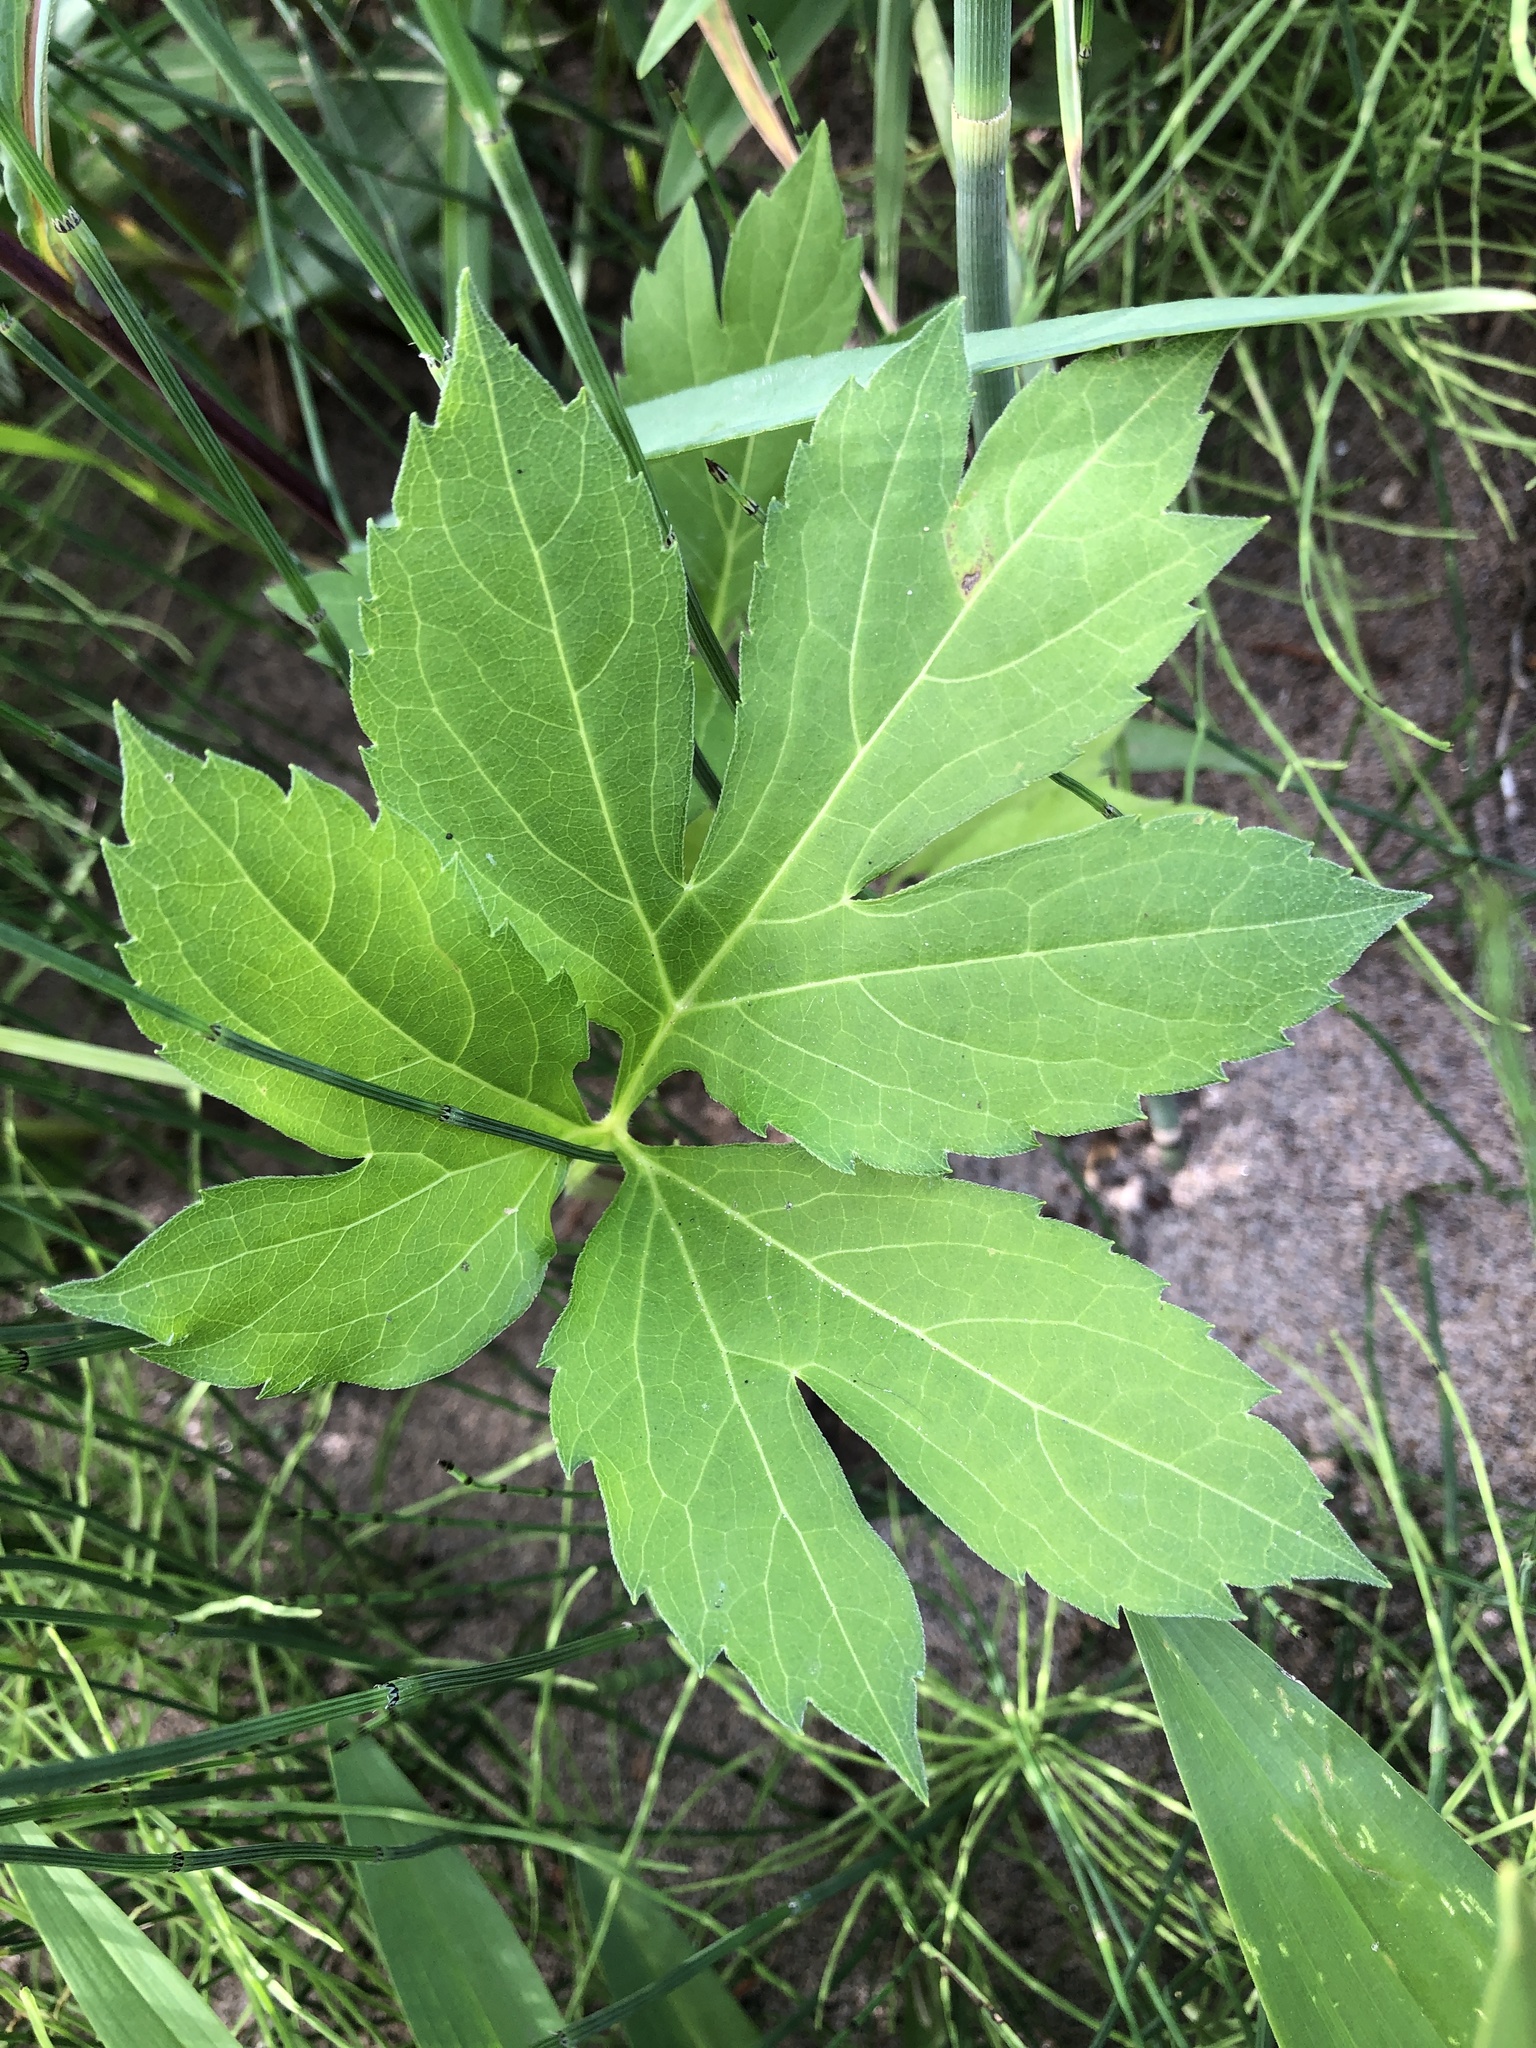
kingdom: Plantae
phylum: Tracheophyta
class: Magnoliopsida
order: Asterales
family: Asteraceae
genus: Rudbeckia
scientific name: Rudbeckia laciniata
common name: Coneflower
